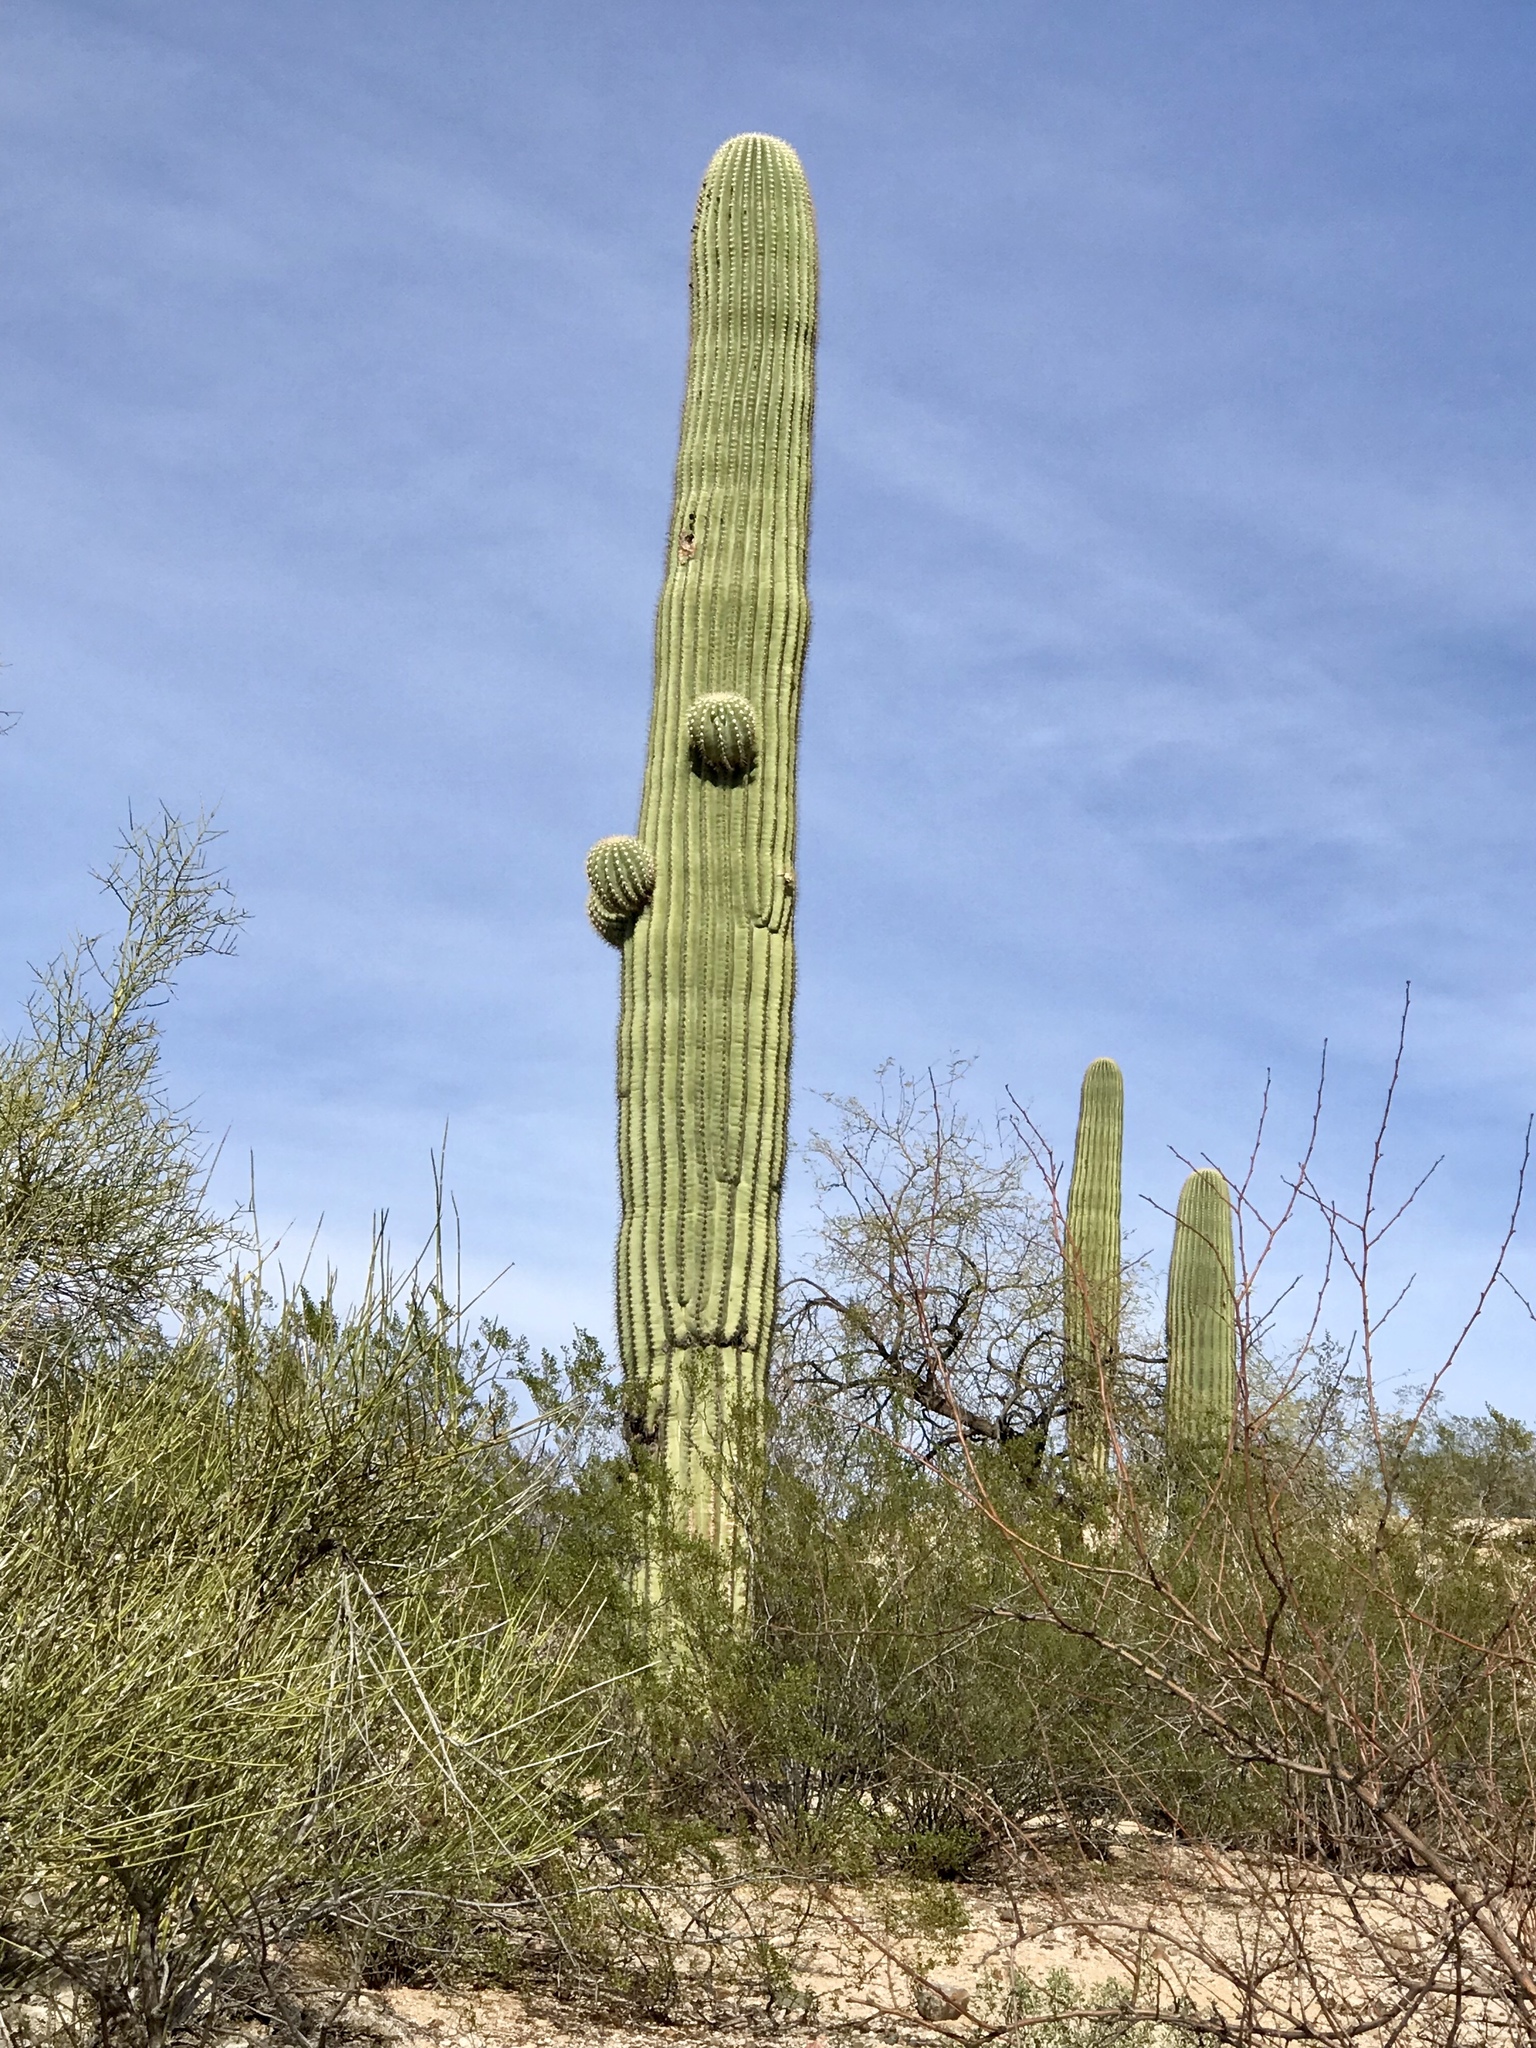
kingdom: Plantae
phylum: Tracheophyta
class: Magnoliopsida
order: Caryophyllales
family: Cactaceae
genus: Carnegiea
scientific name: Carnegiea gigantea
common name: Saguaro
